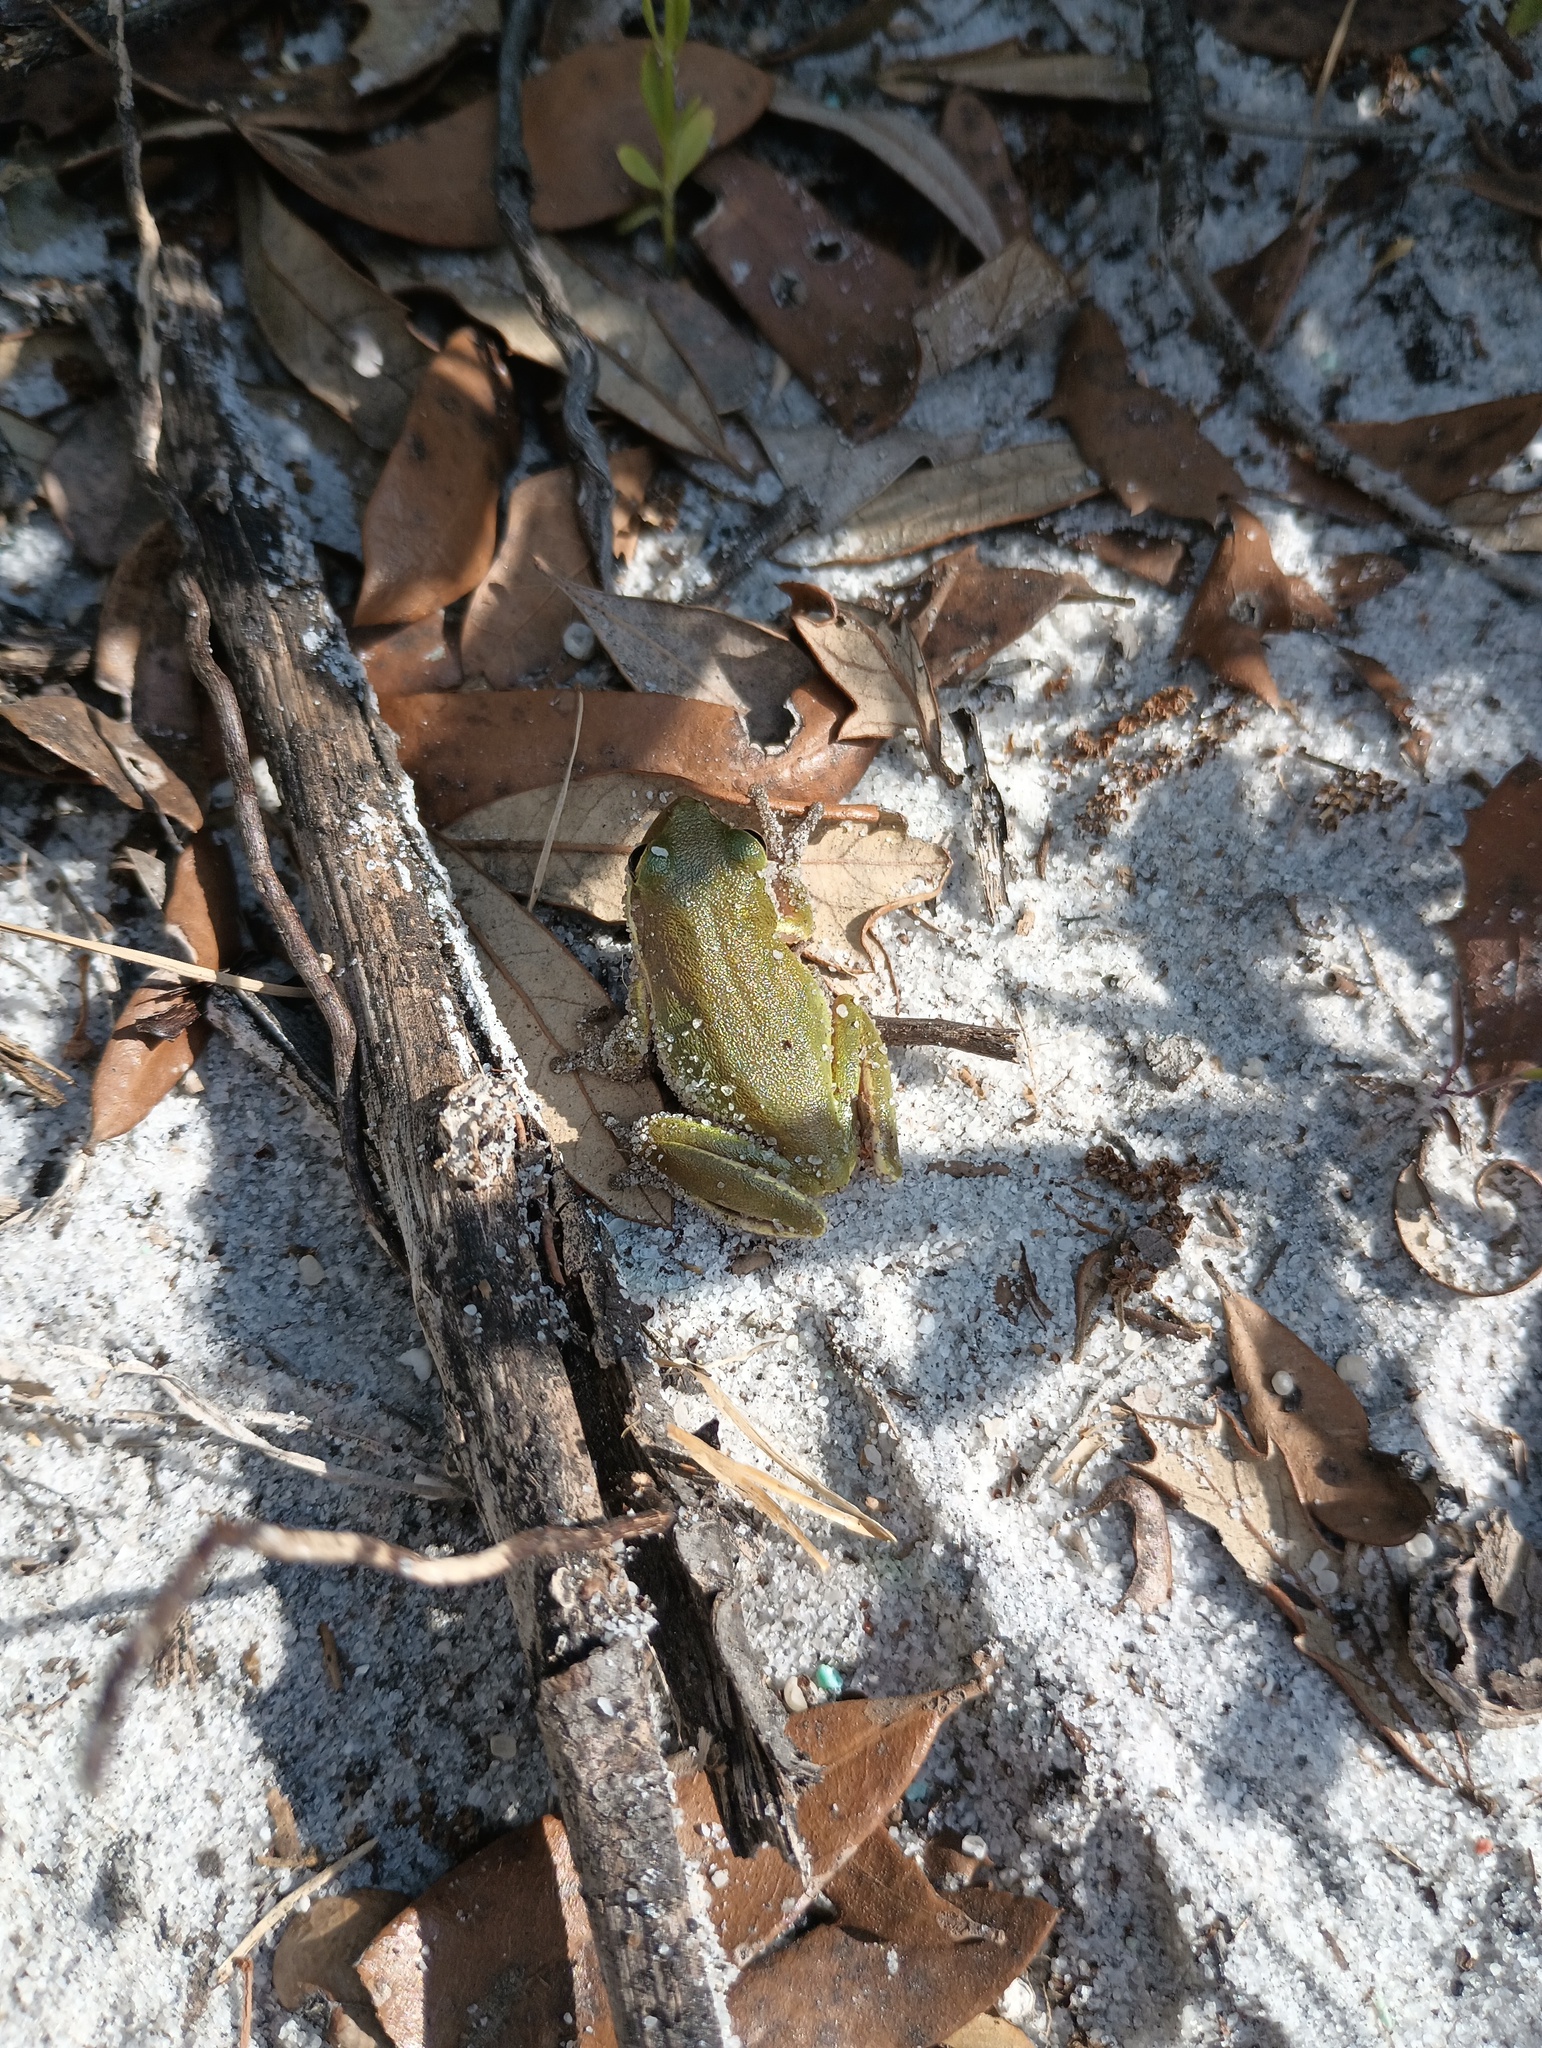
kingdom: Animalia
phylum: Chordata
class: Amphibia
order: Anura
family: Hylidae
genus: Dryophytes
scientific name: Dryophytes squirellus
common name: Squirrel treefrog
